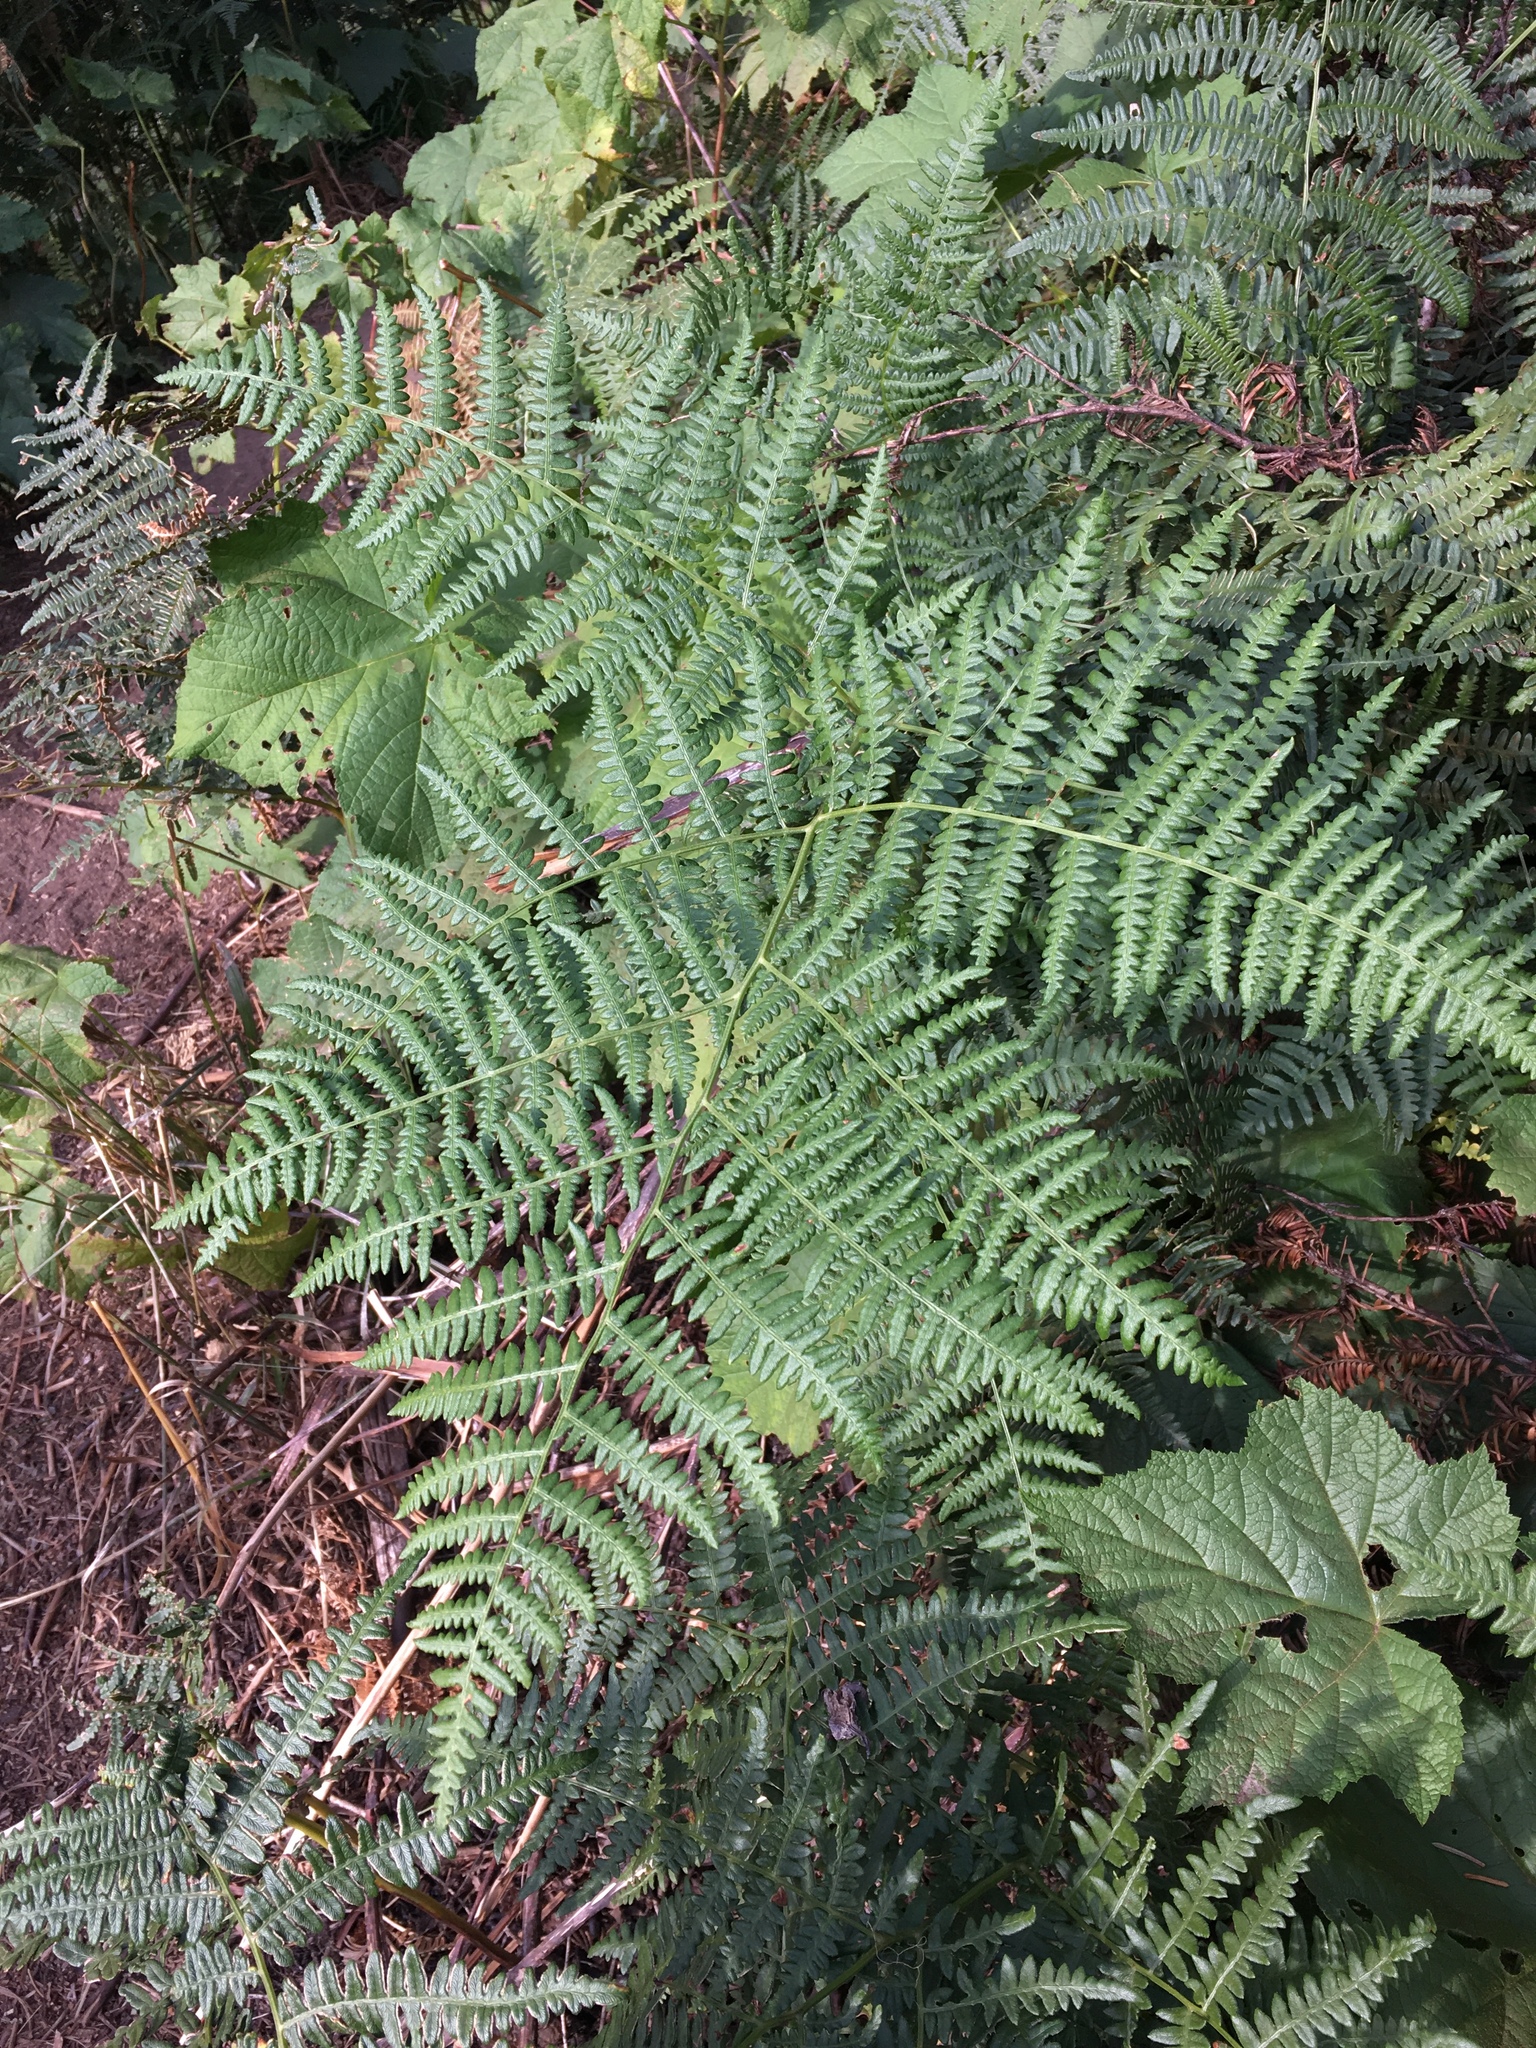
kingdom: Plantae
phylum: Tracheophyta
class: Polypodiopsida
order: Polypodiales
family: Dennstaedtiaceae
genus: Pteridium
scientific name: Pteridium aquilinum
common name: Bracken
